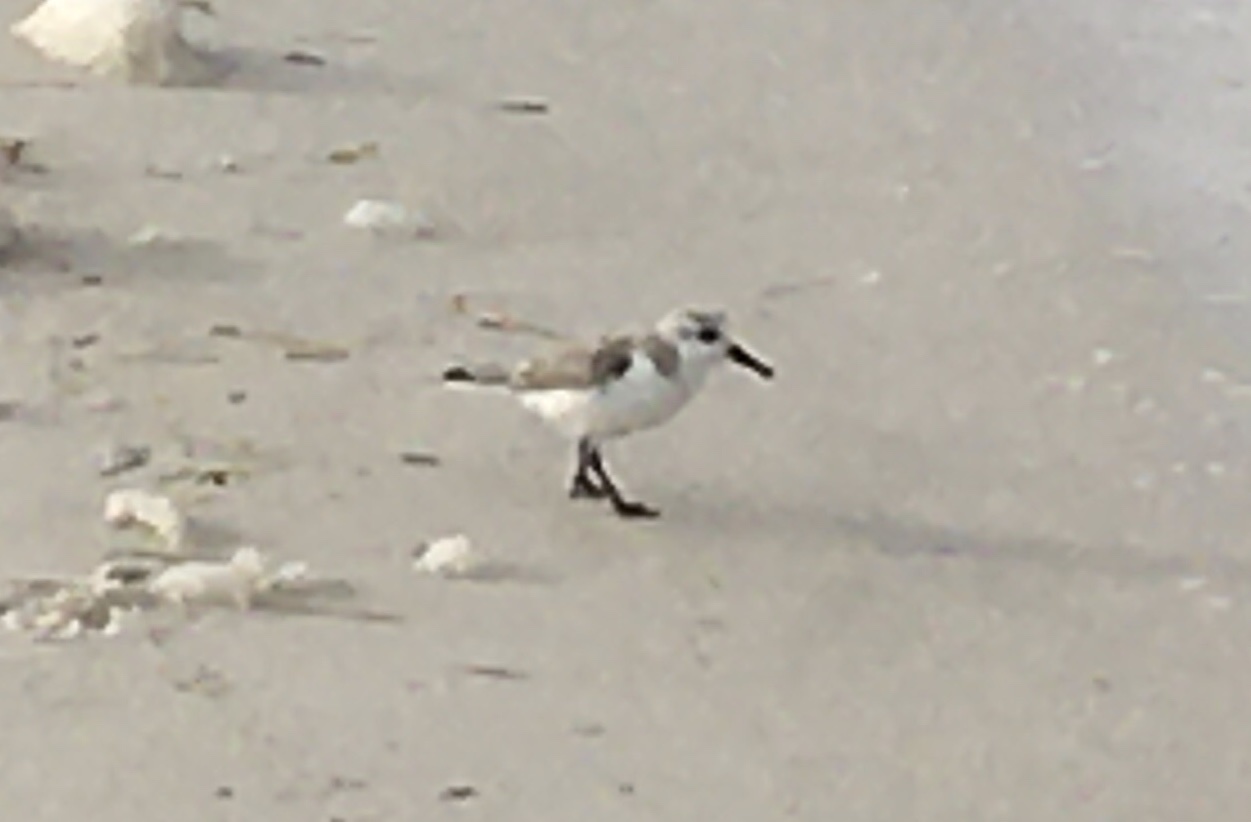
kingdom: Animalia
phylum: Chordata
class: Aves
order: Charadriiformes
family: Scolopacidae
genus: Calidris
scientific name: Calidris alba
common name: Sanderling
